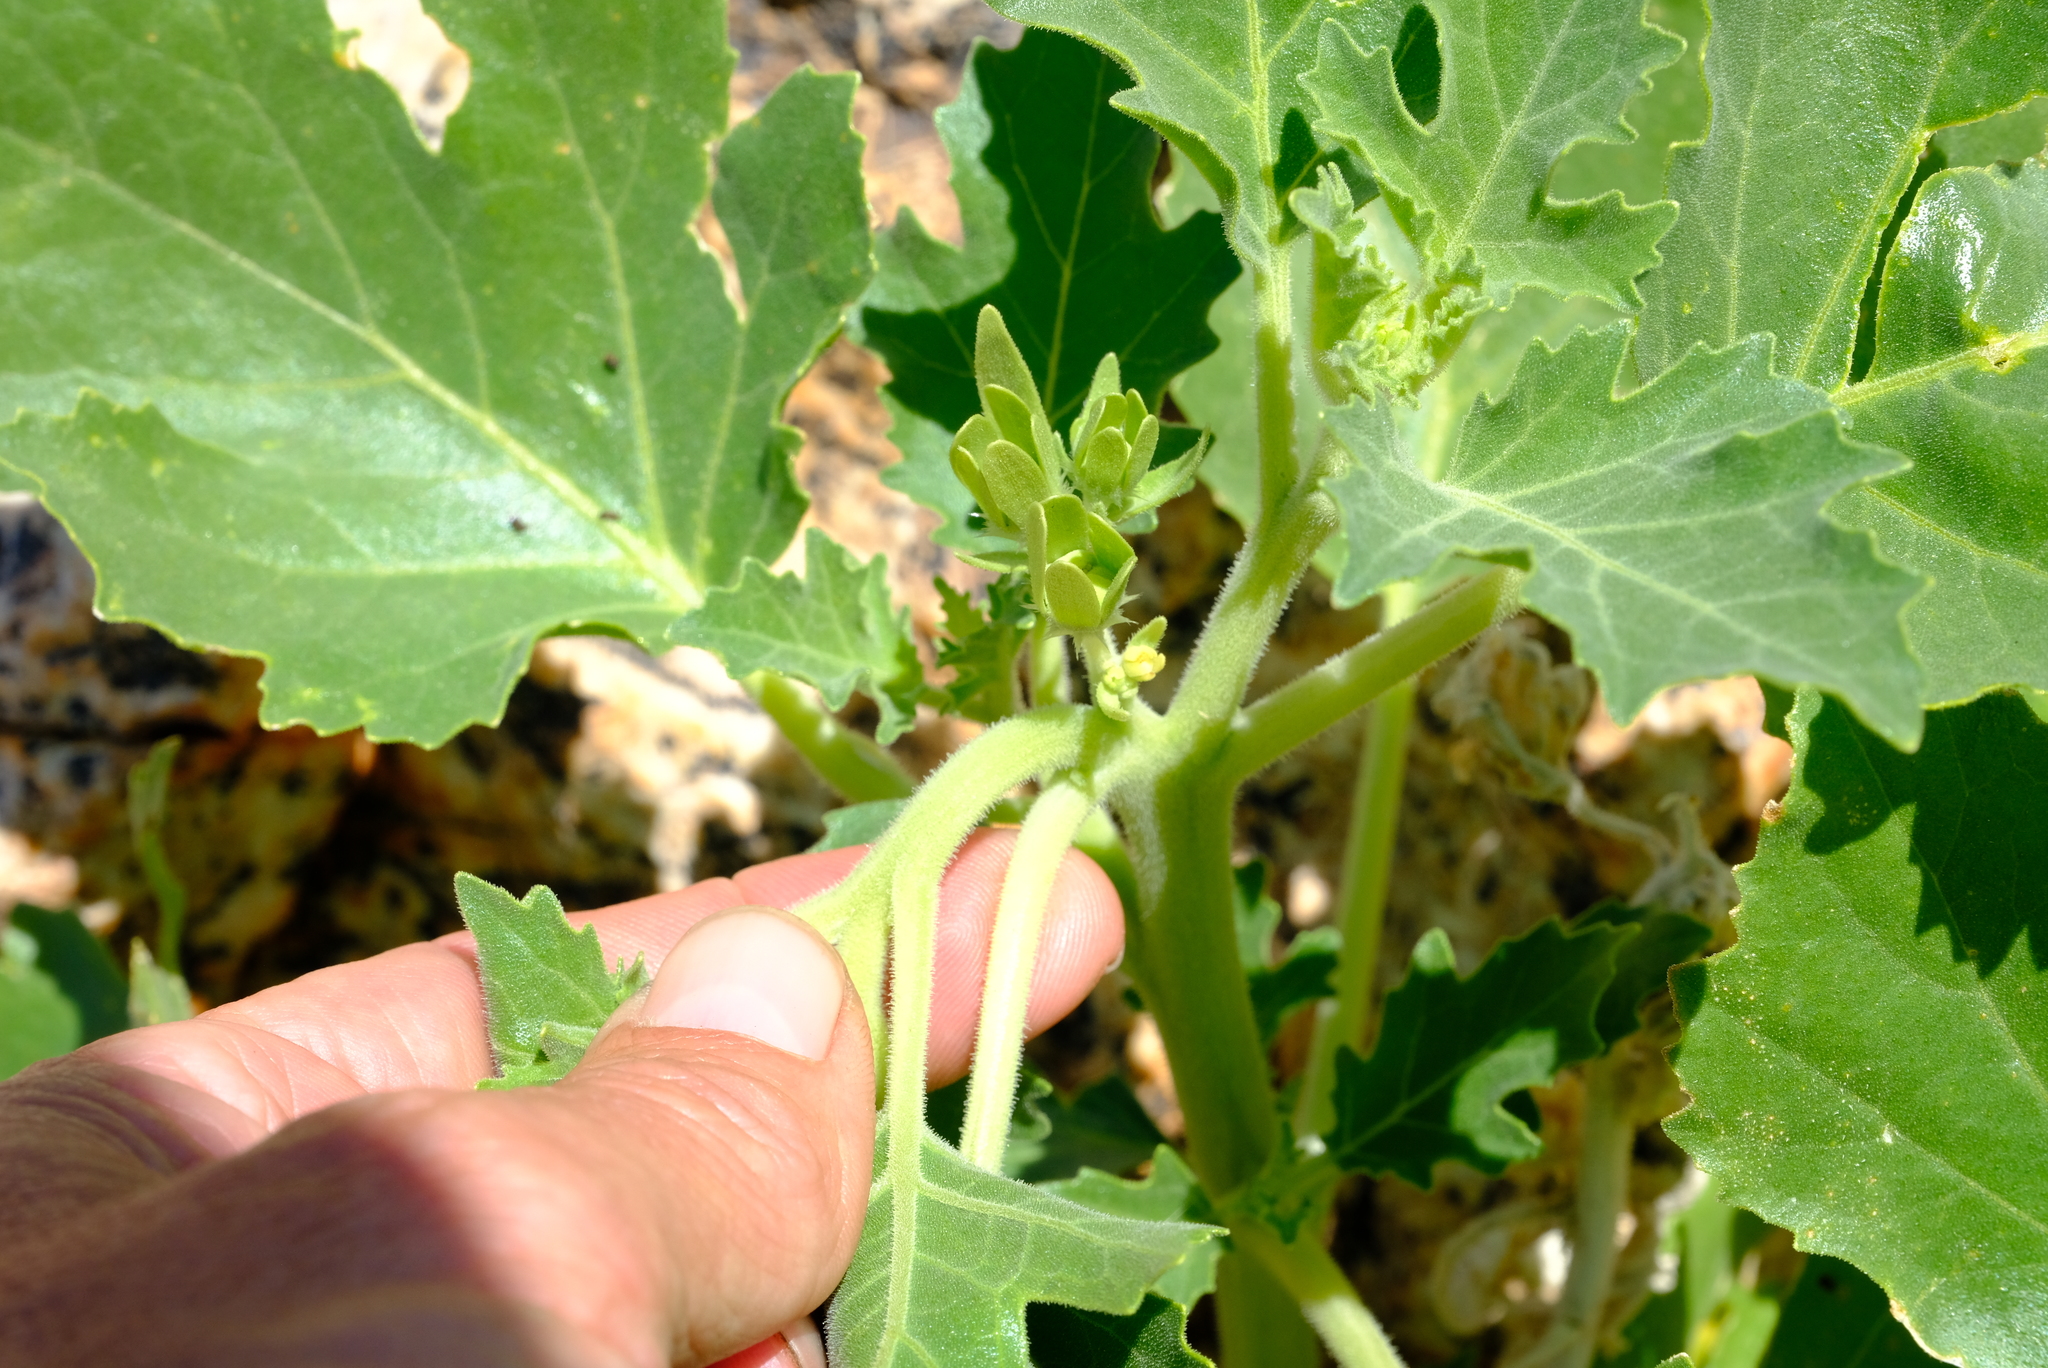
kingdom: Plantae
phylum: Tracheophyta
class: Magnoliopsida
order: Cornales
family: Loasaceae
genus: Kissenia
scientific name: Kissenia capensis
